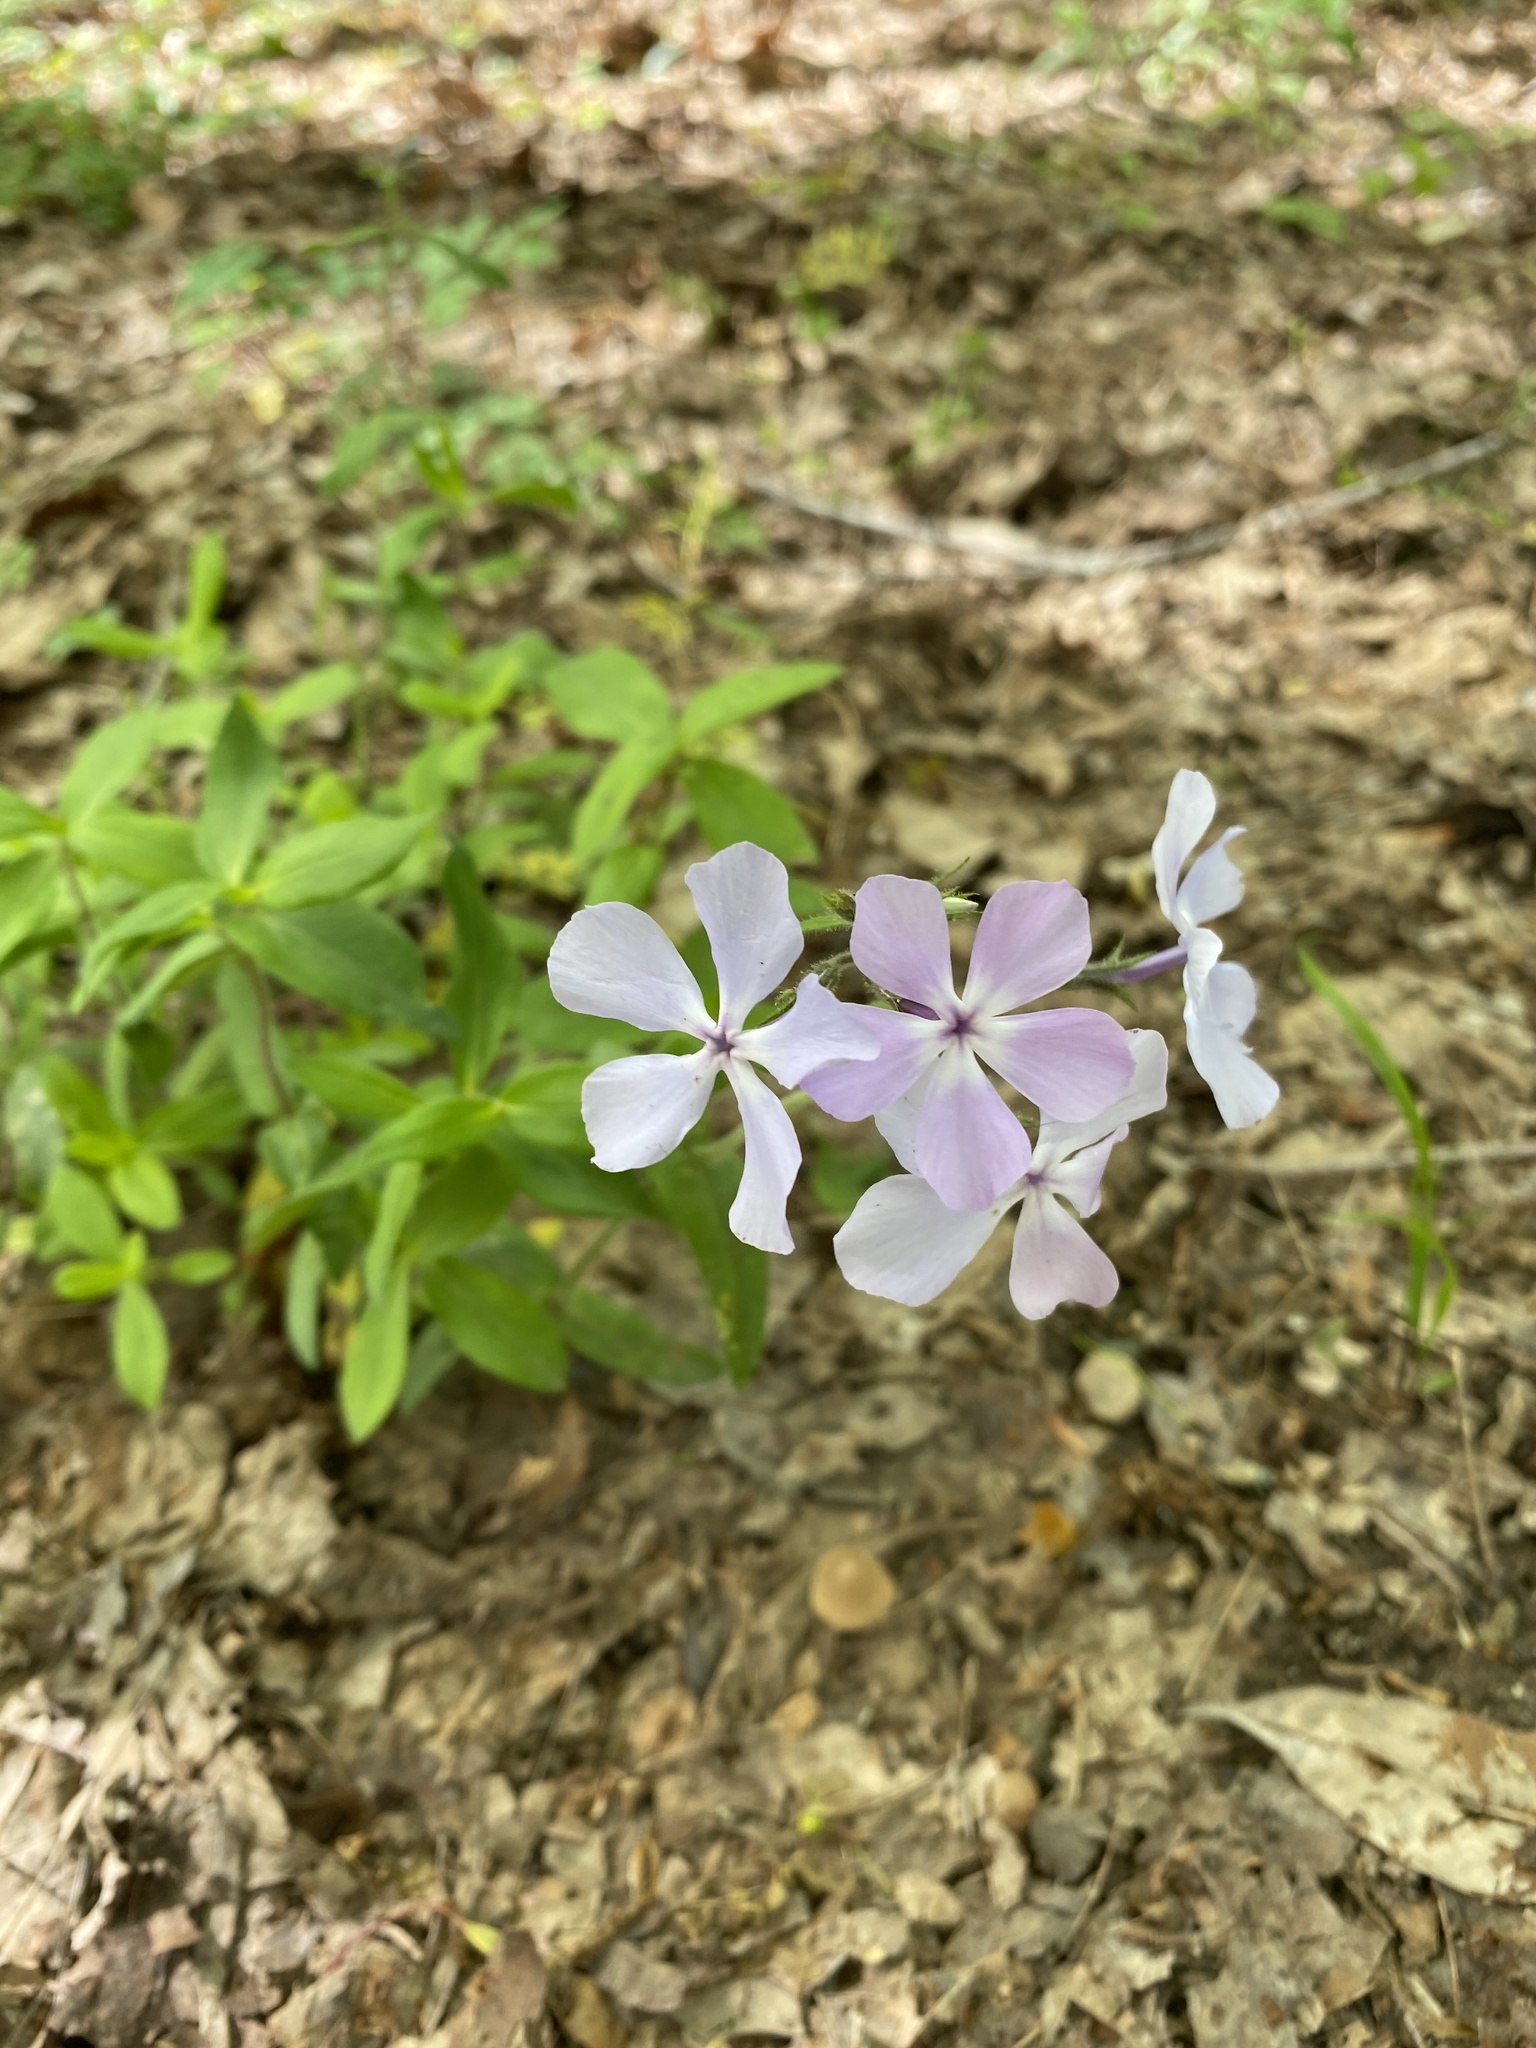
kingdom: Plantae
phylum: Tracheophyta
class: Magnoliopsida
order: Ericales
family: Polemoniaceae
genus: Phlox
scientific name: Phlox divaricata
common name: Blue phlox
